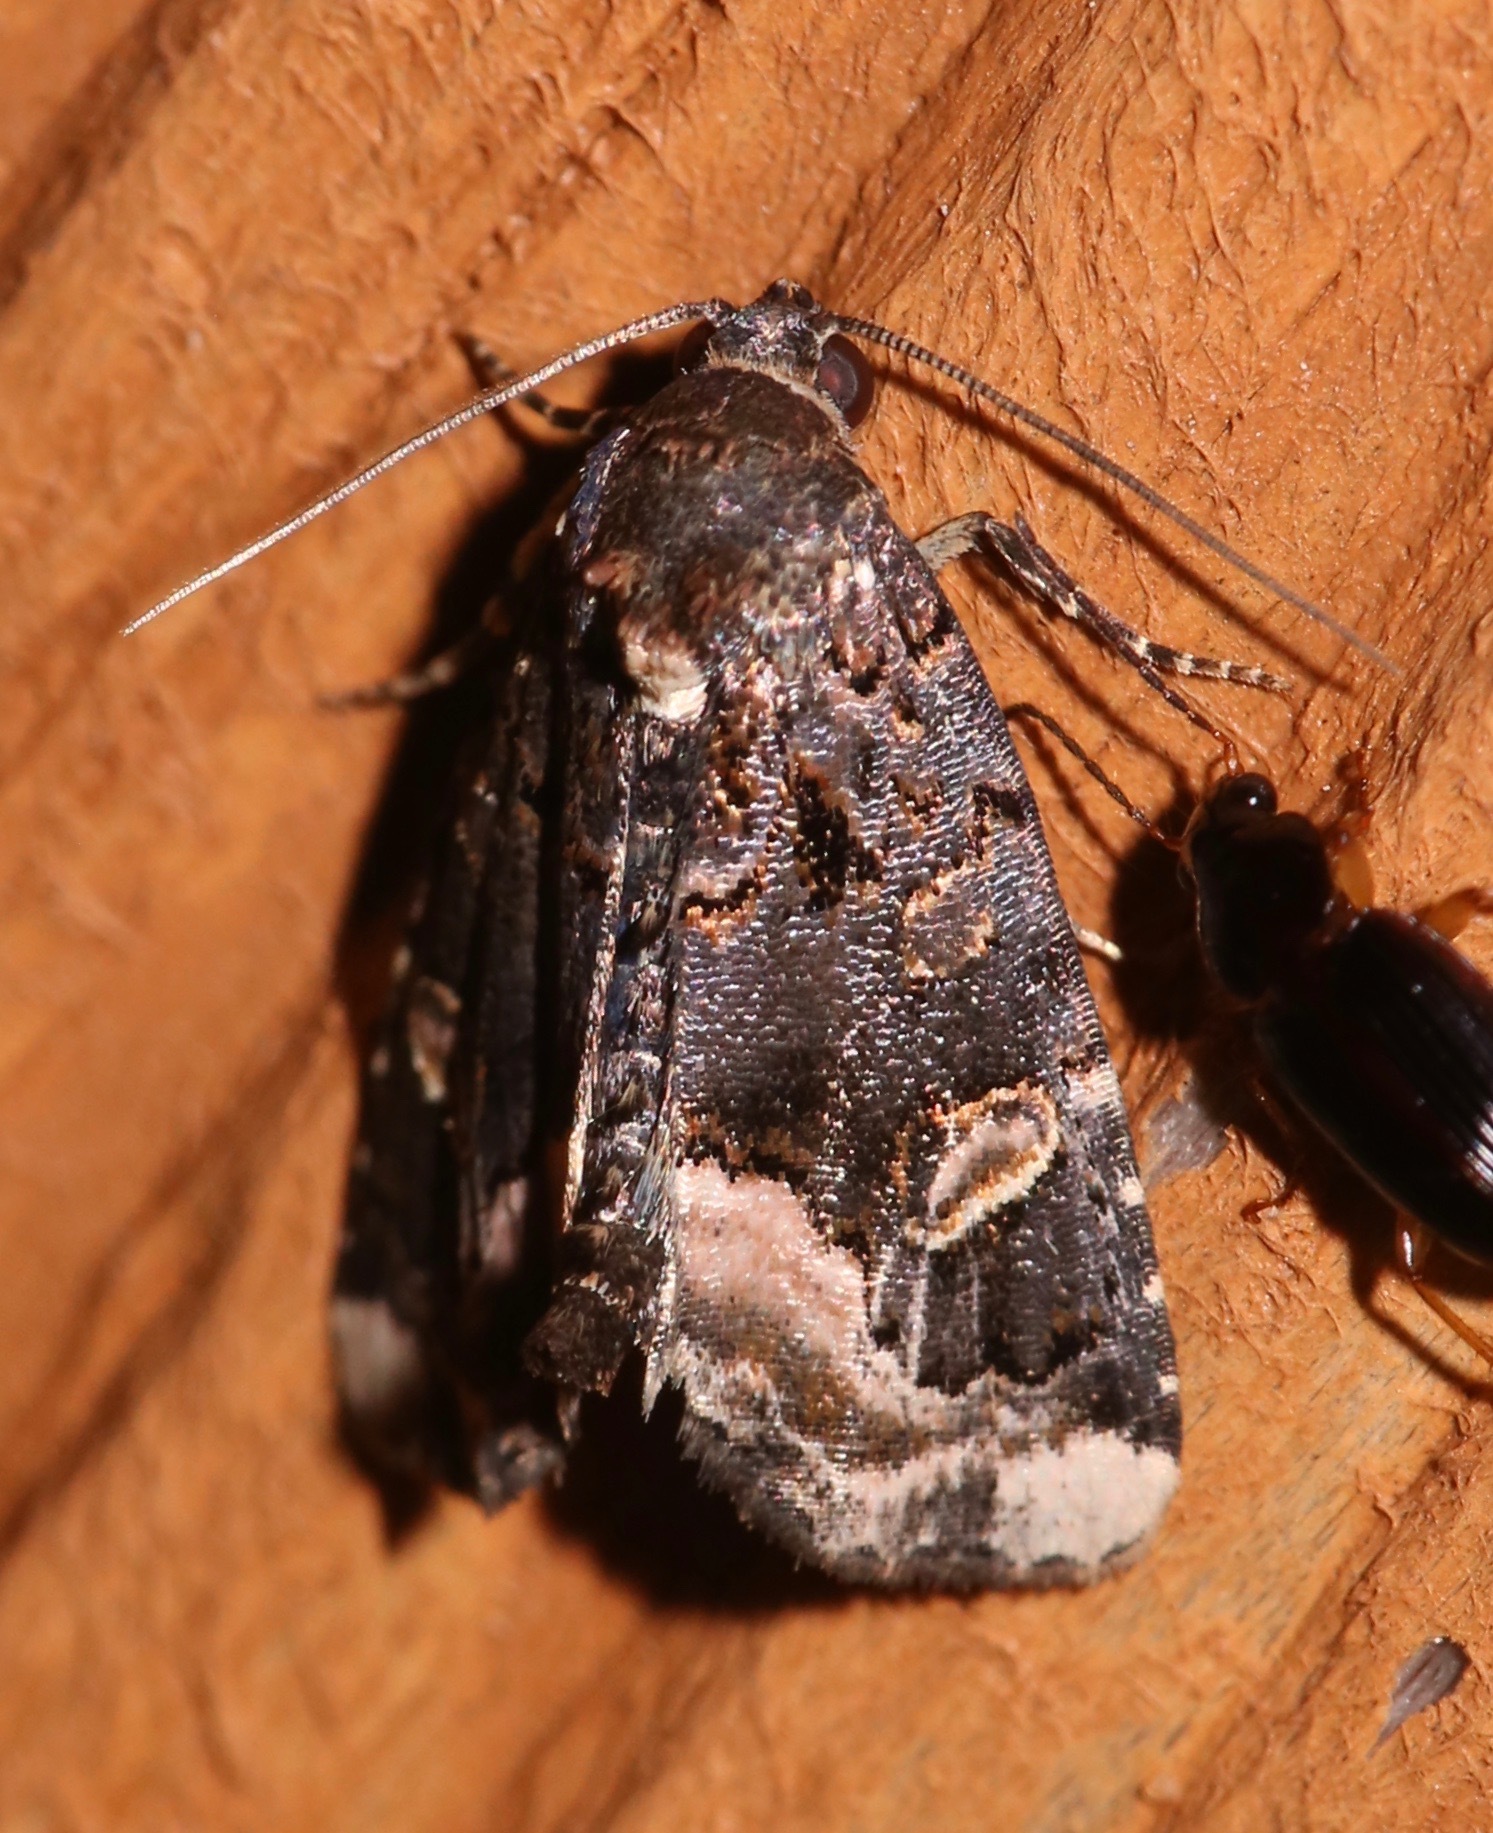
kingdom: Animalia
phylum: Arthropoda
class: Insecta
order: Lepidoptera
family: Noctuidae
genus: Homophoberia
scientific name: Homophoberia apicosa
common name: Black wedge-spot
